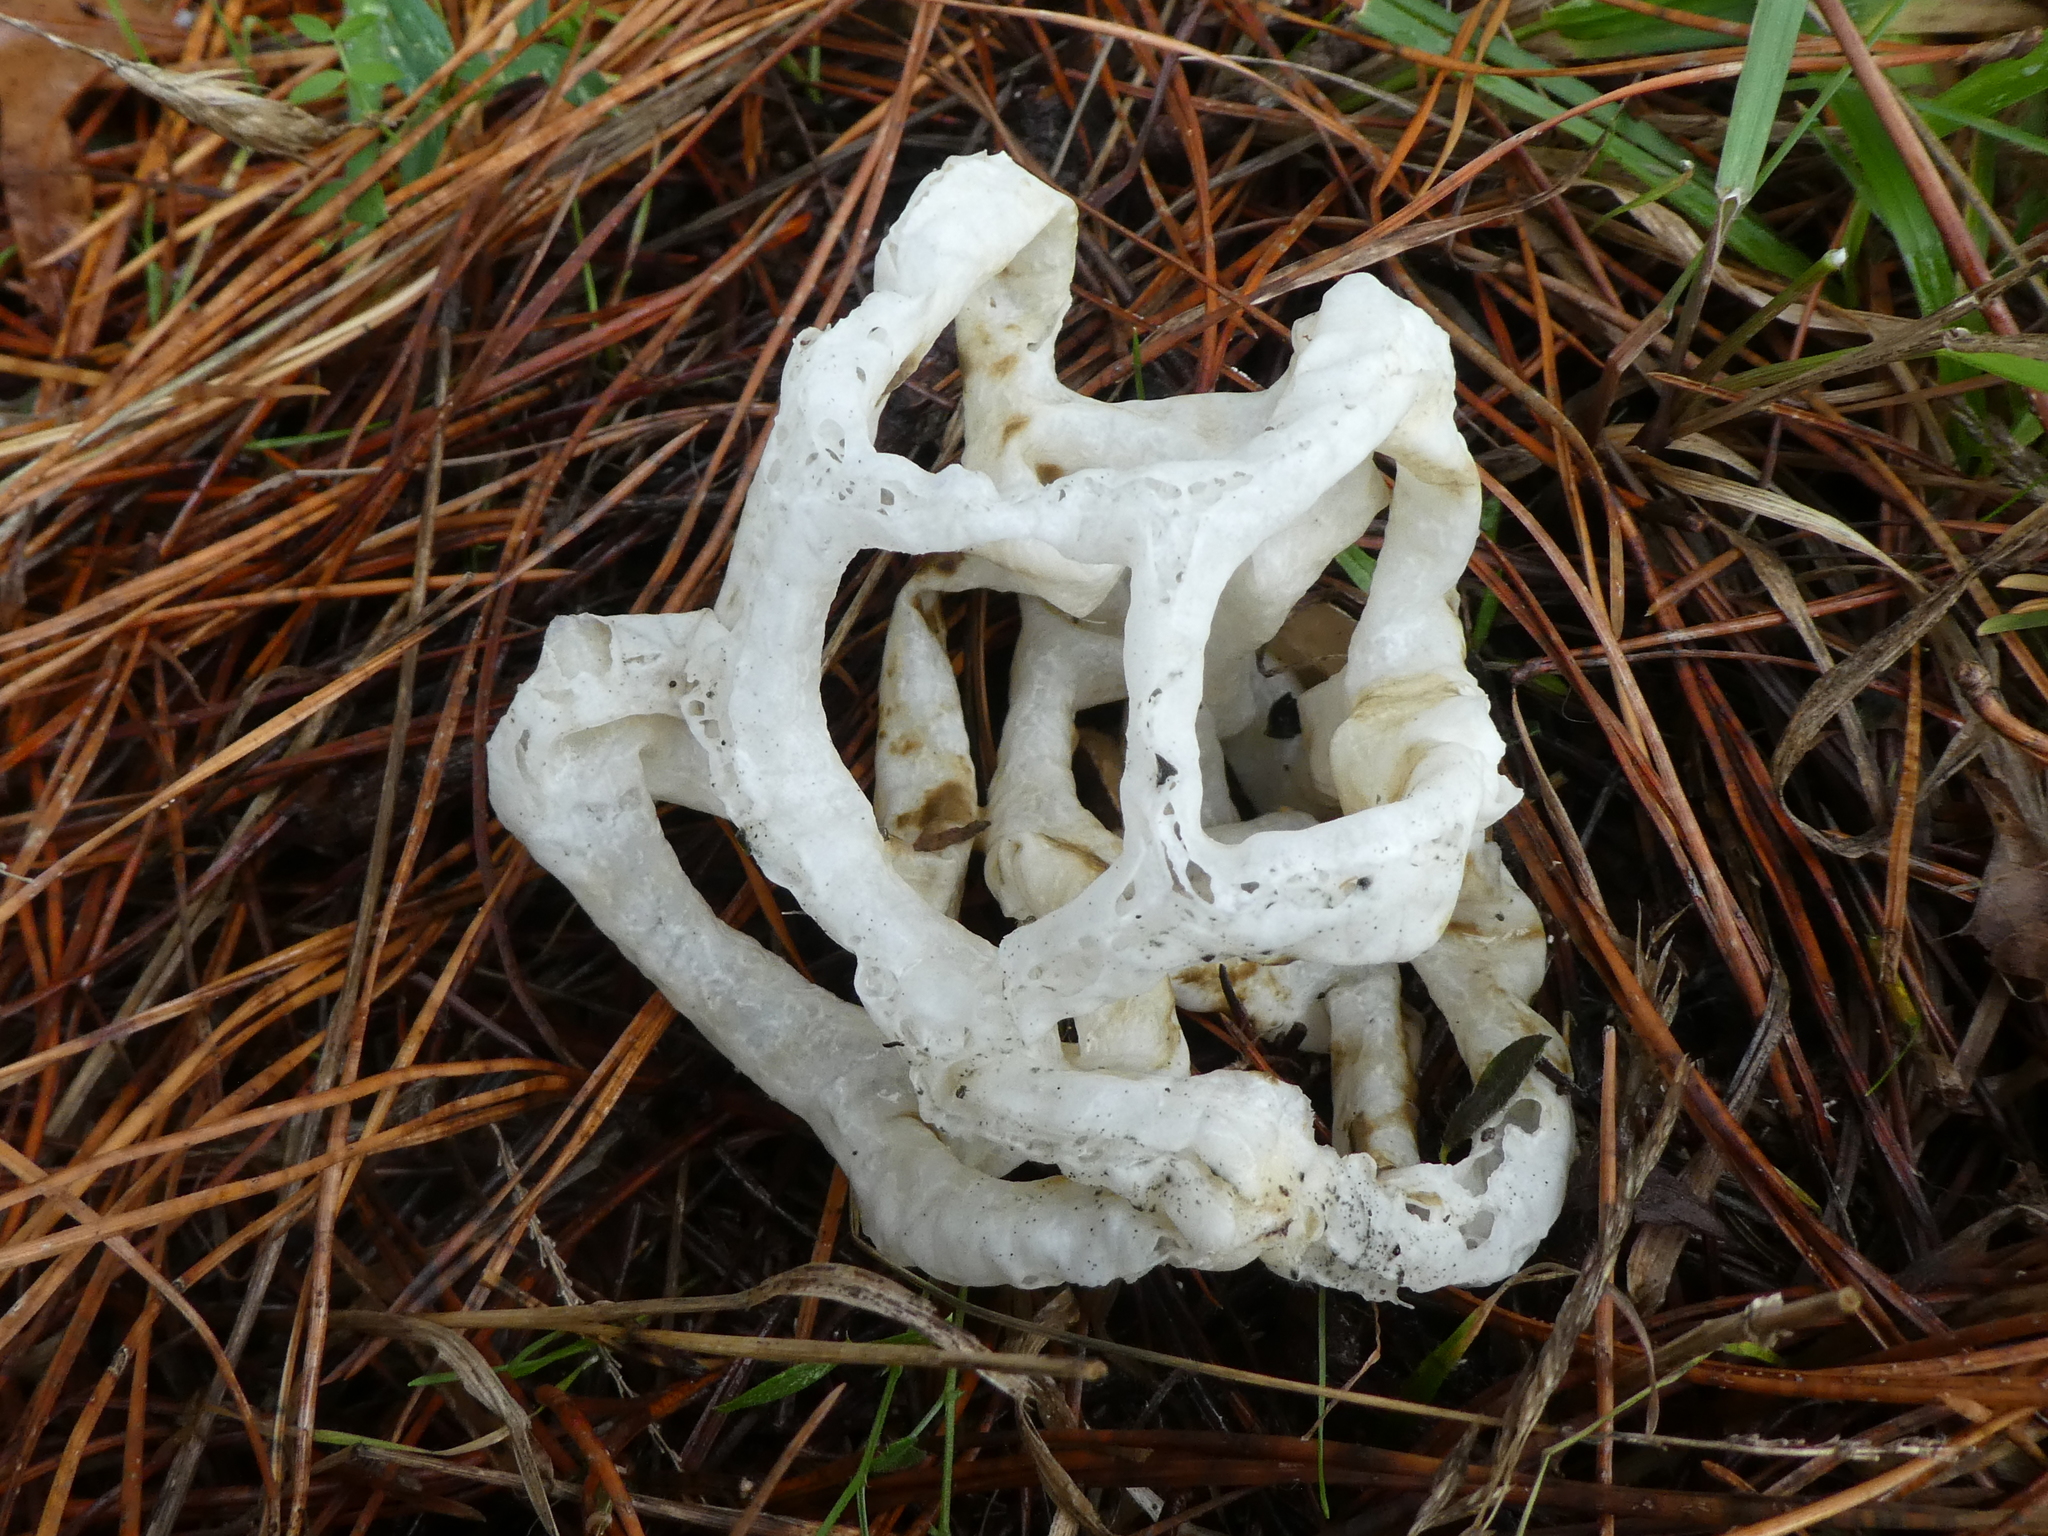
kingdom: Fungi
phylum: Basidiomycota
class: Agaricomycetes
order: Phallales
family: Phallaceae
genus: Ileodictyon
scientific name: Ileodictyon cibarium
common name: Basket fungus
